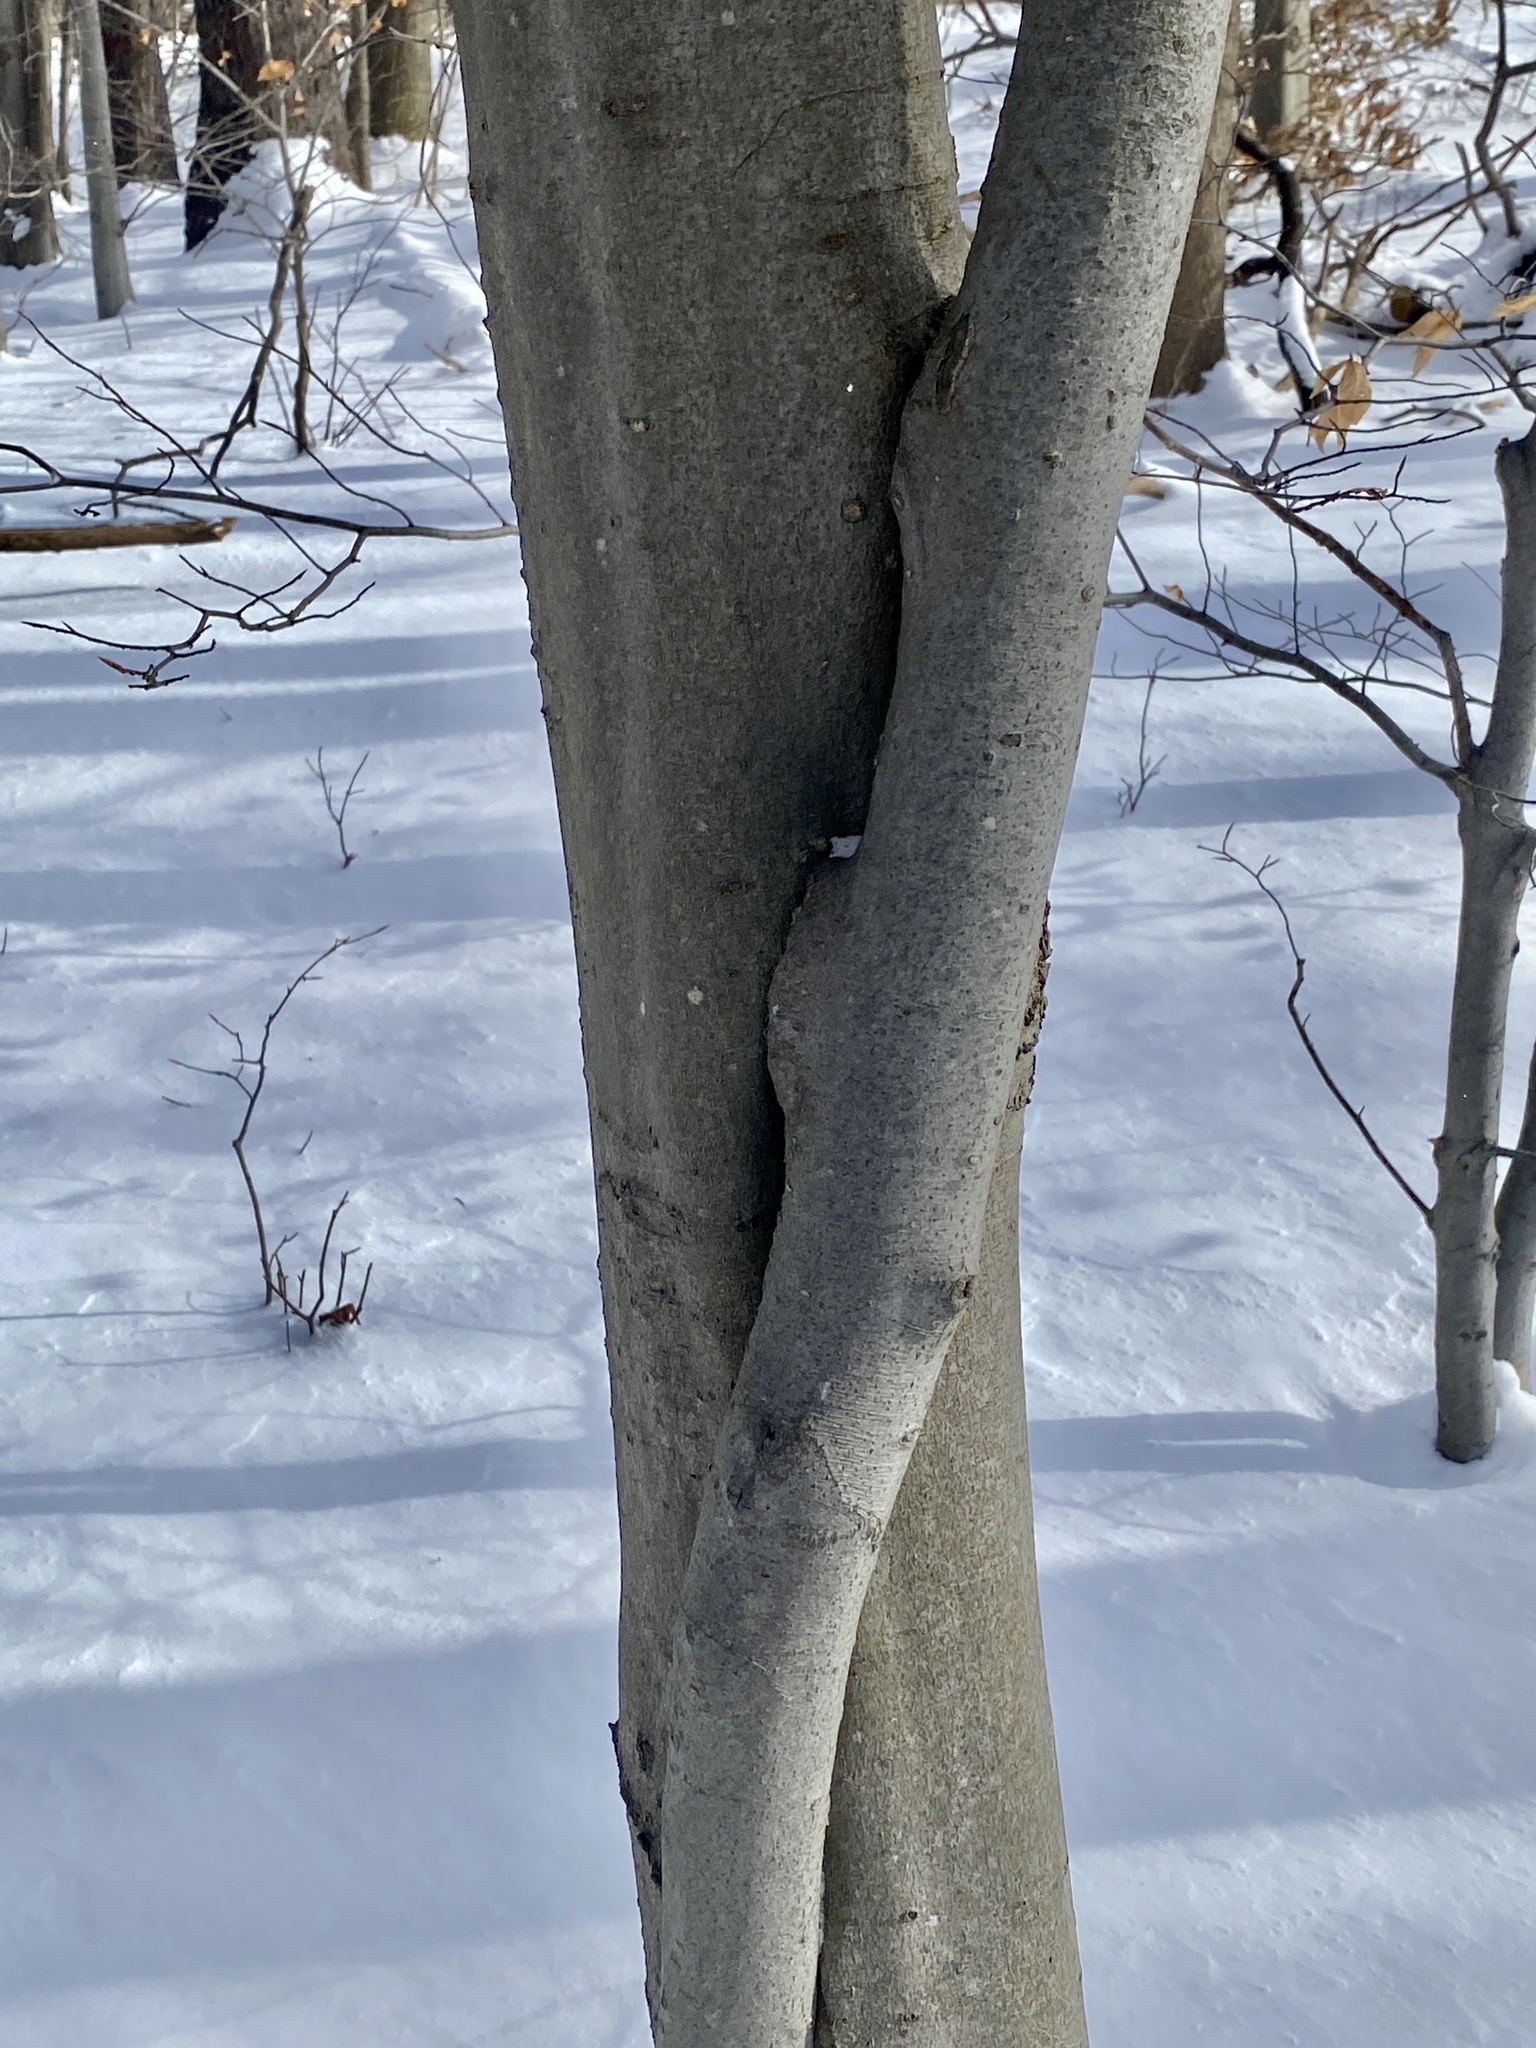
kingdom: Plantae
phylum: Tracheophyta
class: Magnoliopsida
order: Fagales
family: Fagaceae
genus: Fagus
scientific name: Fagus grandifolia
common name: American beech
